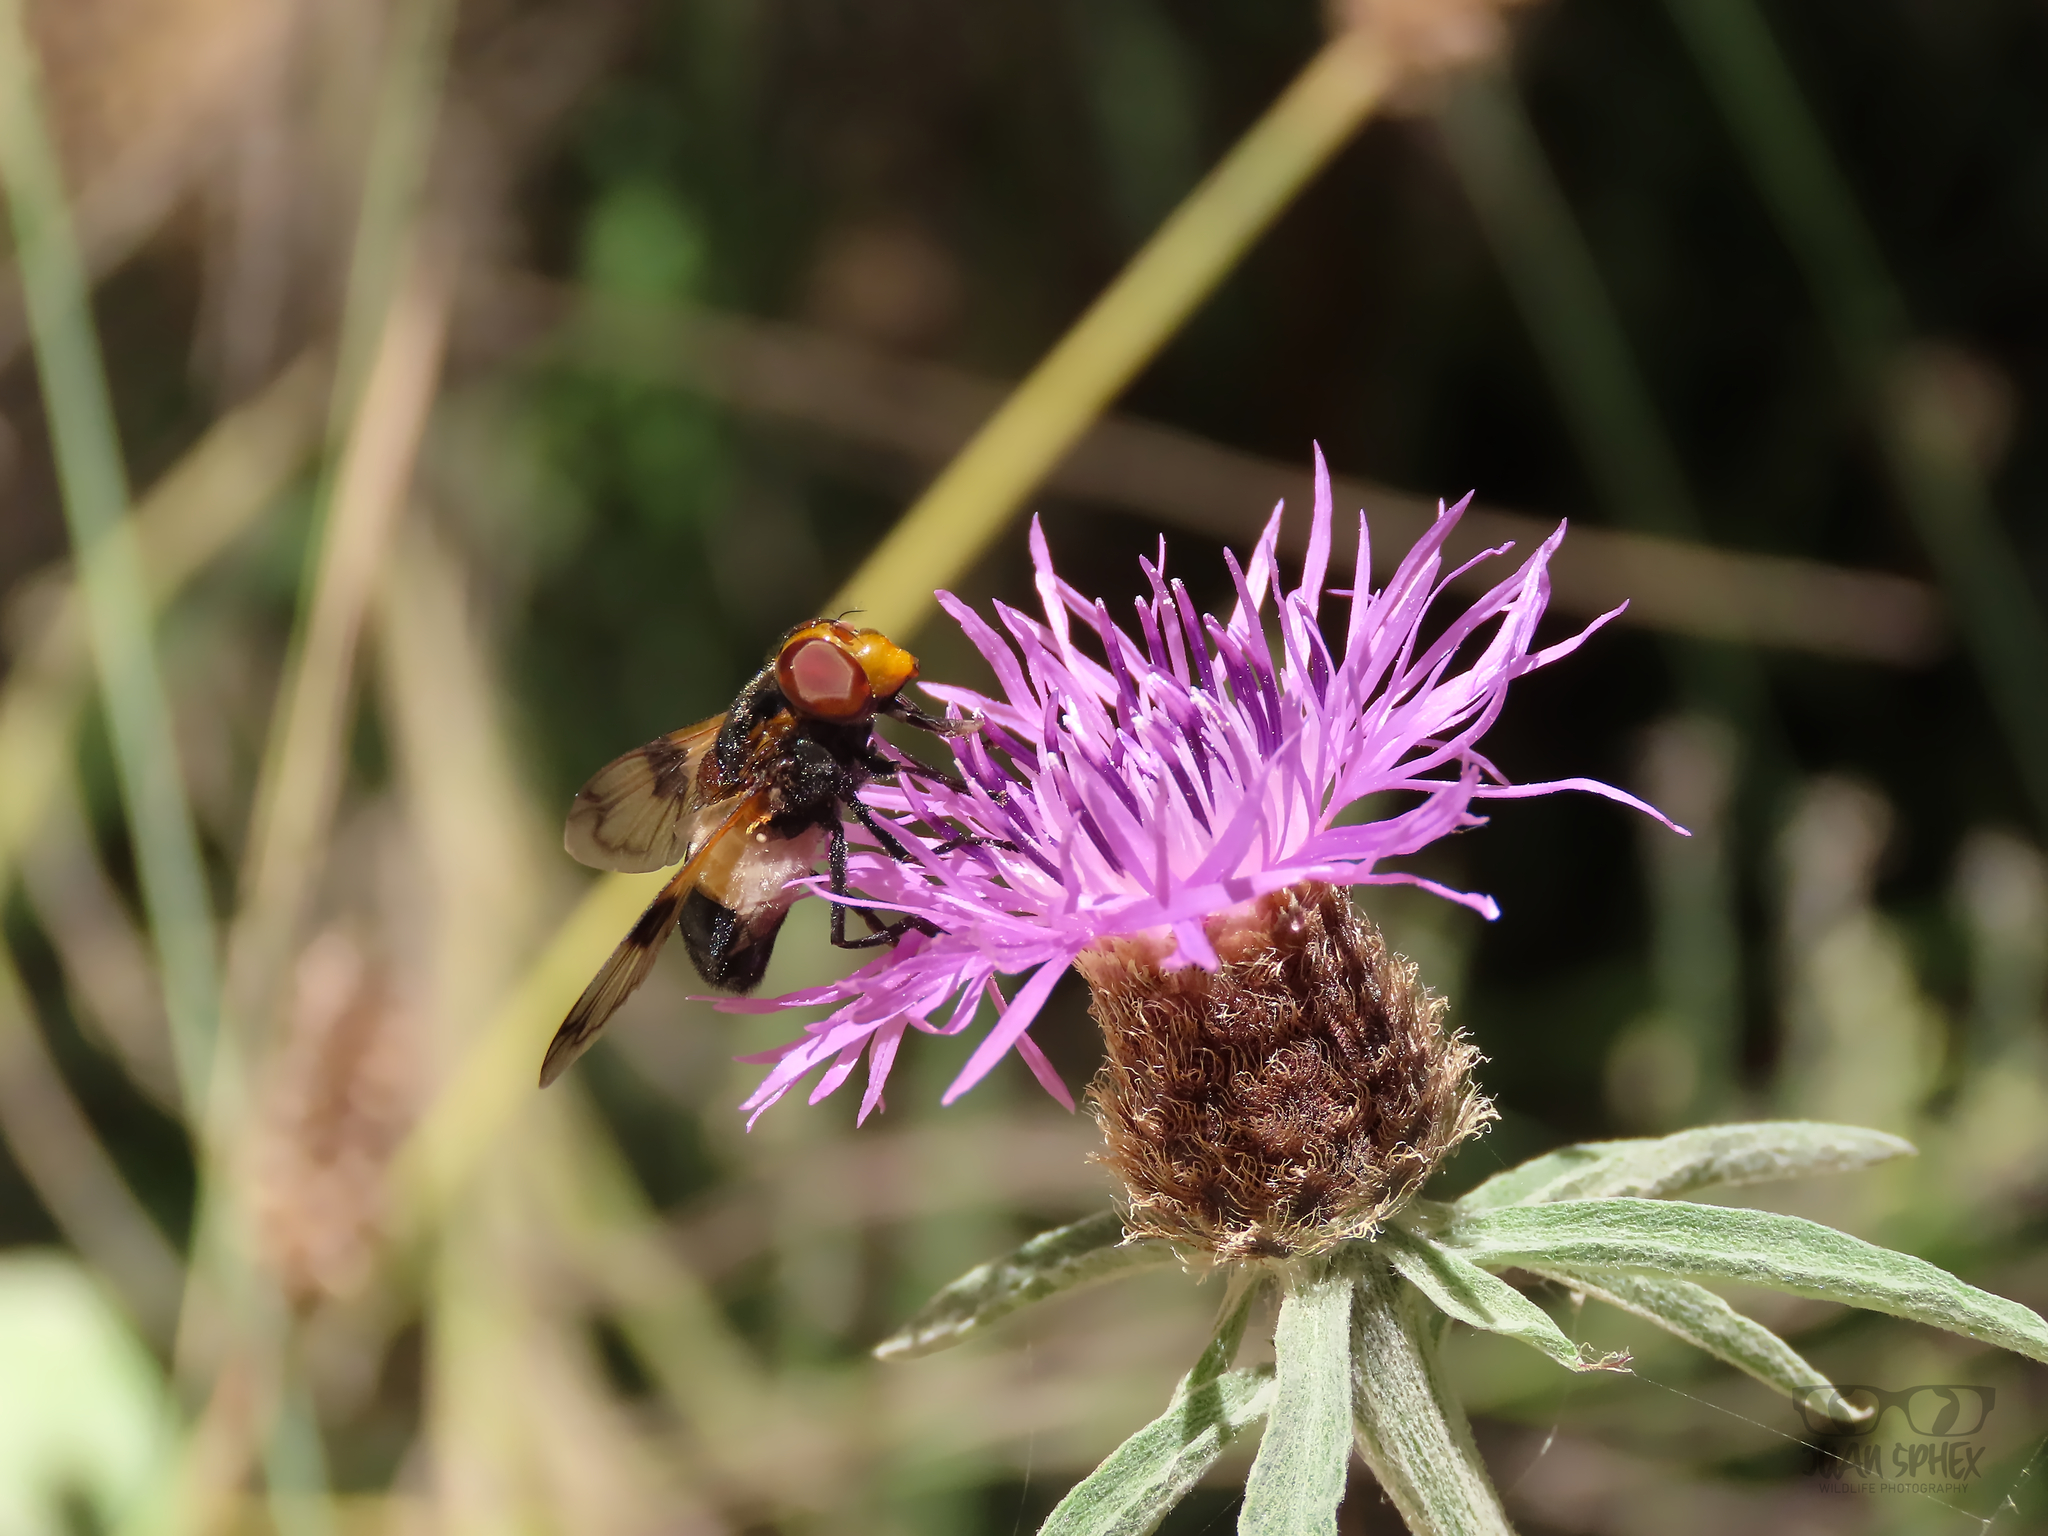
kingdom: Animalia
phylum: Arthropoda
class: Insecta
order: Diptera
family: Syrphidae
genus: Volucella
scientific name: Volucella pellucens
